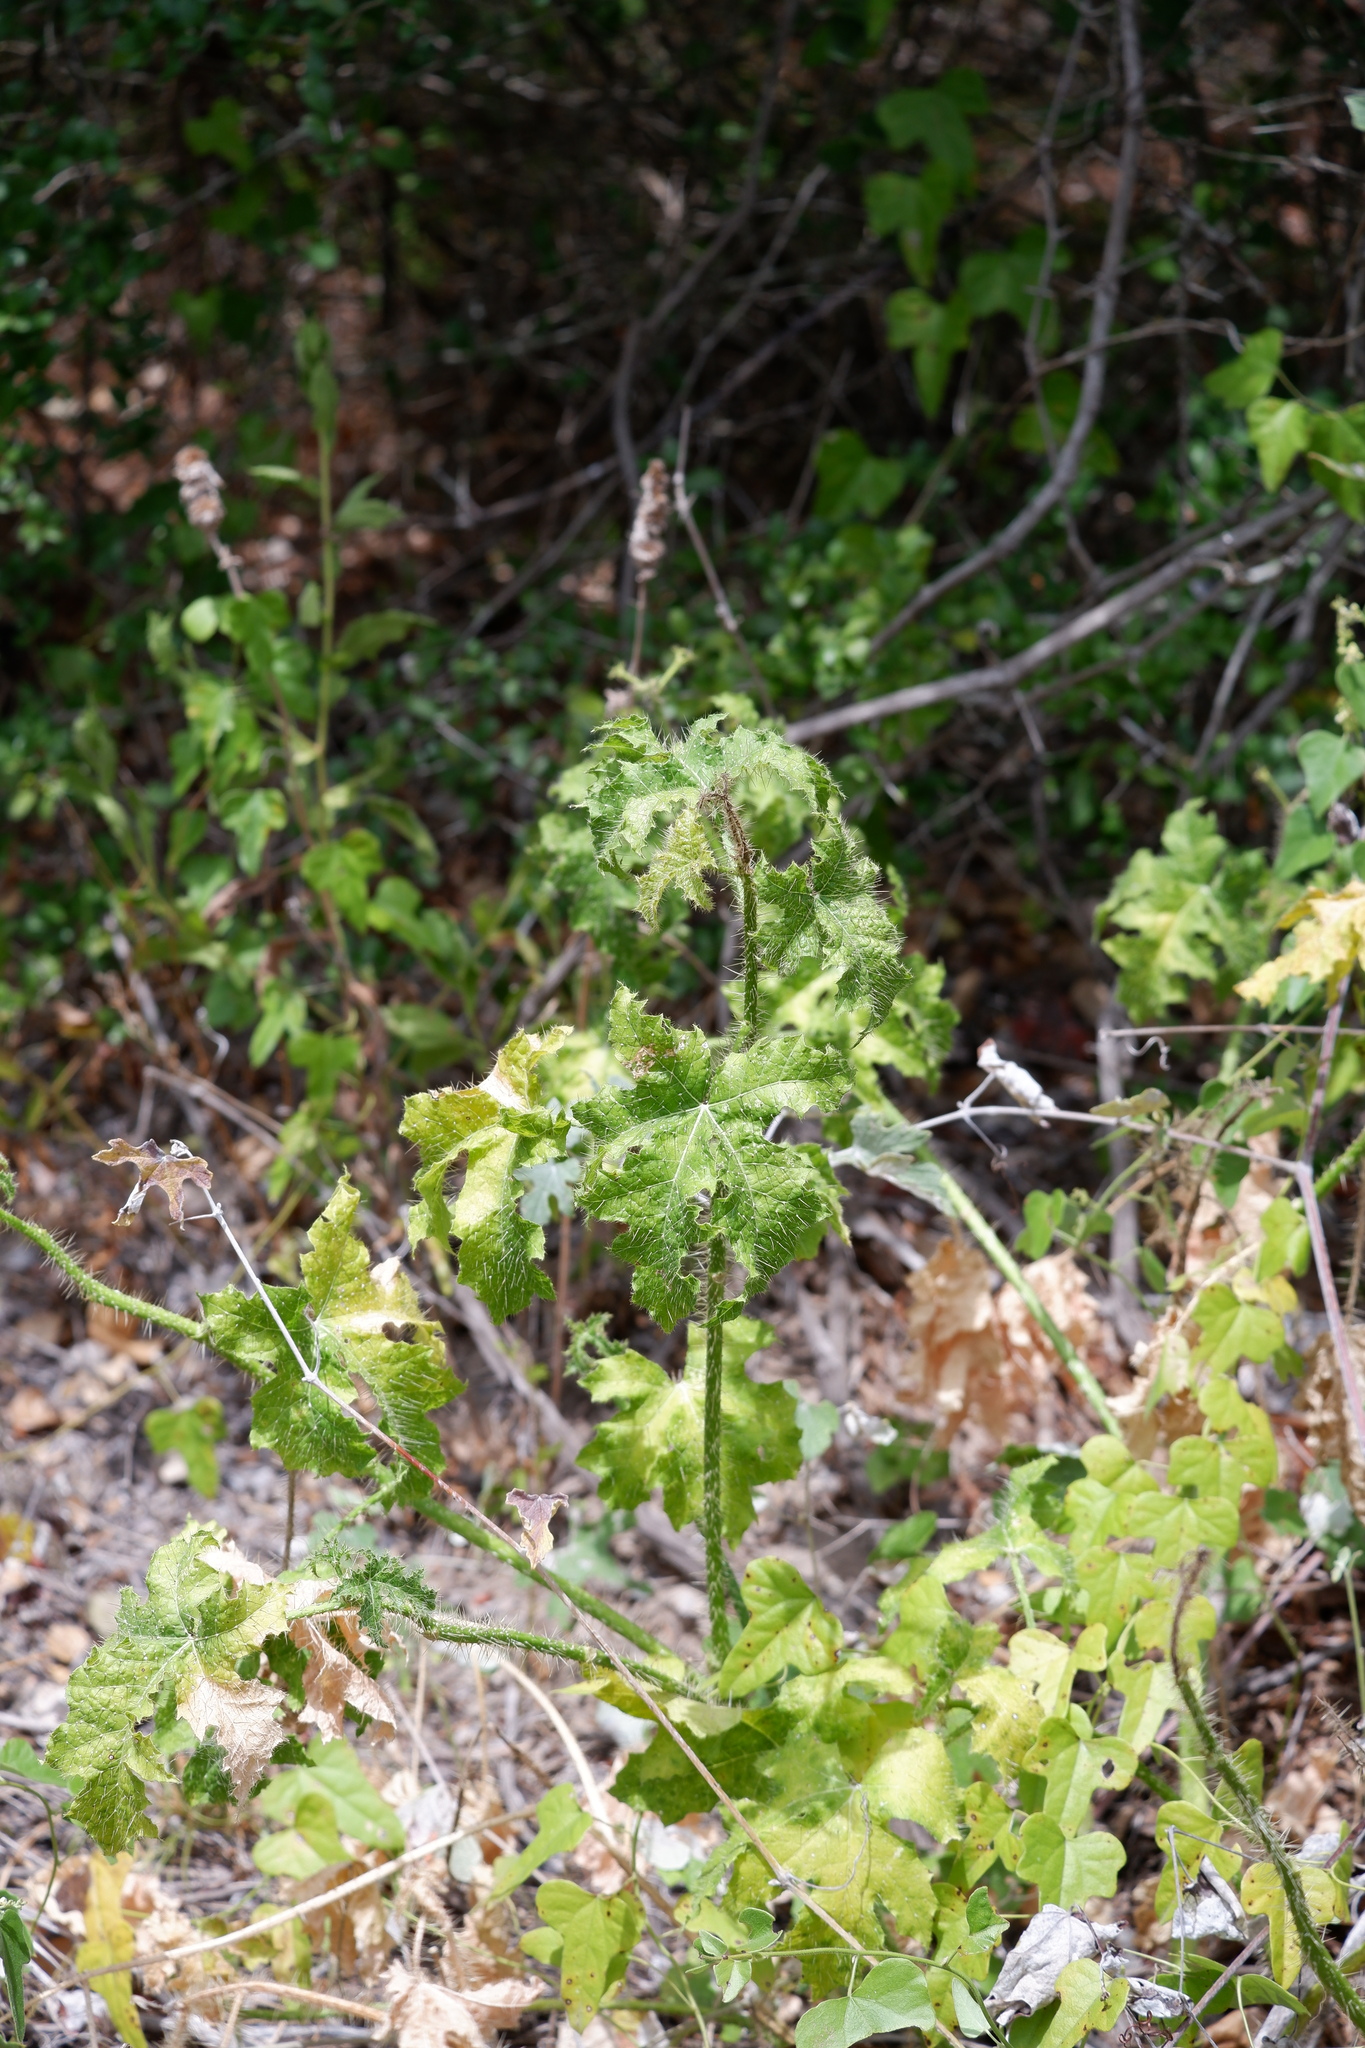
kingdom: Plantae
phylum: Tracheophyta
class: Magnoliopsida
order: Malpighiales
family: Euphorbiaceae
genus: Cnidoscolus
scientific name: Cnidoscolus texanus
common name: Texas bull-nettle
